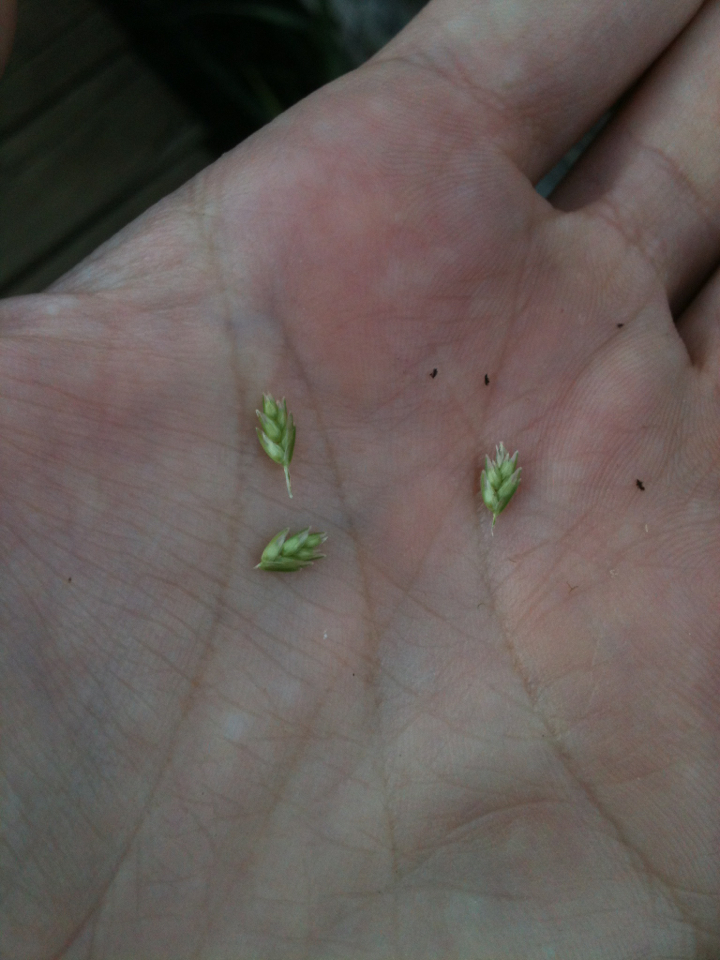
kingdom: Plantae
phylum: Tracheophyta
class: Liliopsida
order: Poales
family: Poaceae
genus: Eleusine
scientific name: Eleusine indica
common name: Yard-grass
